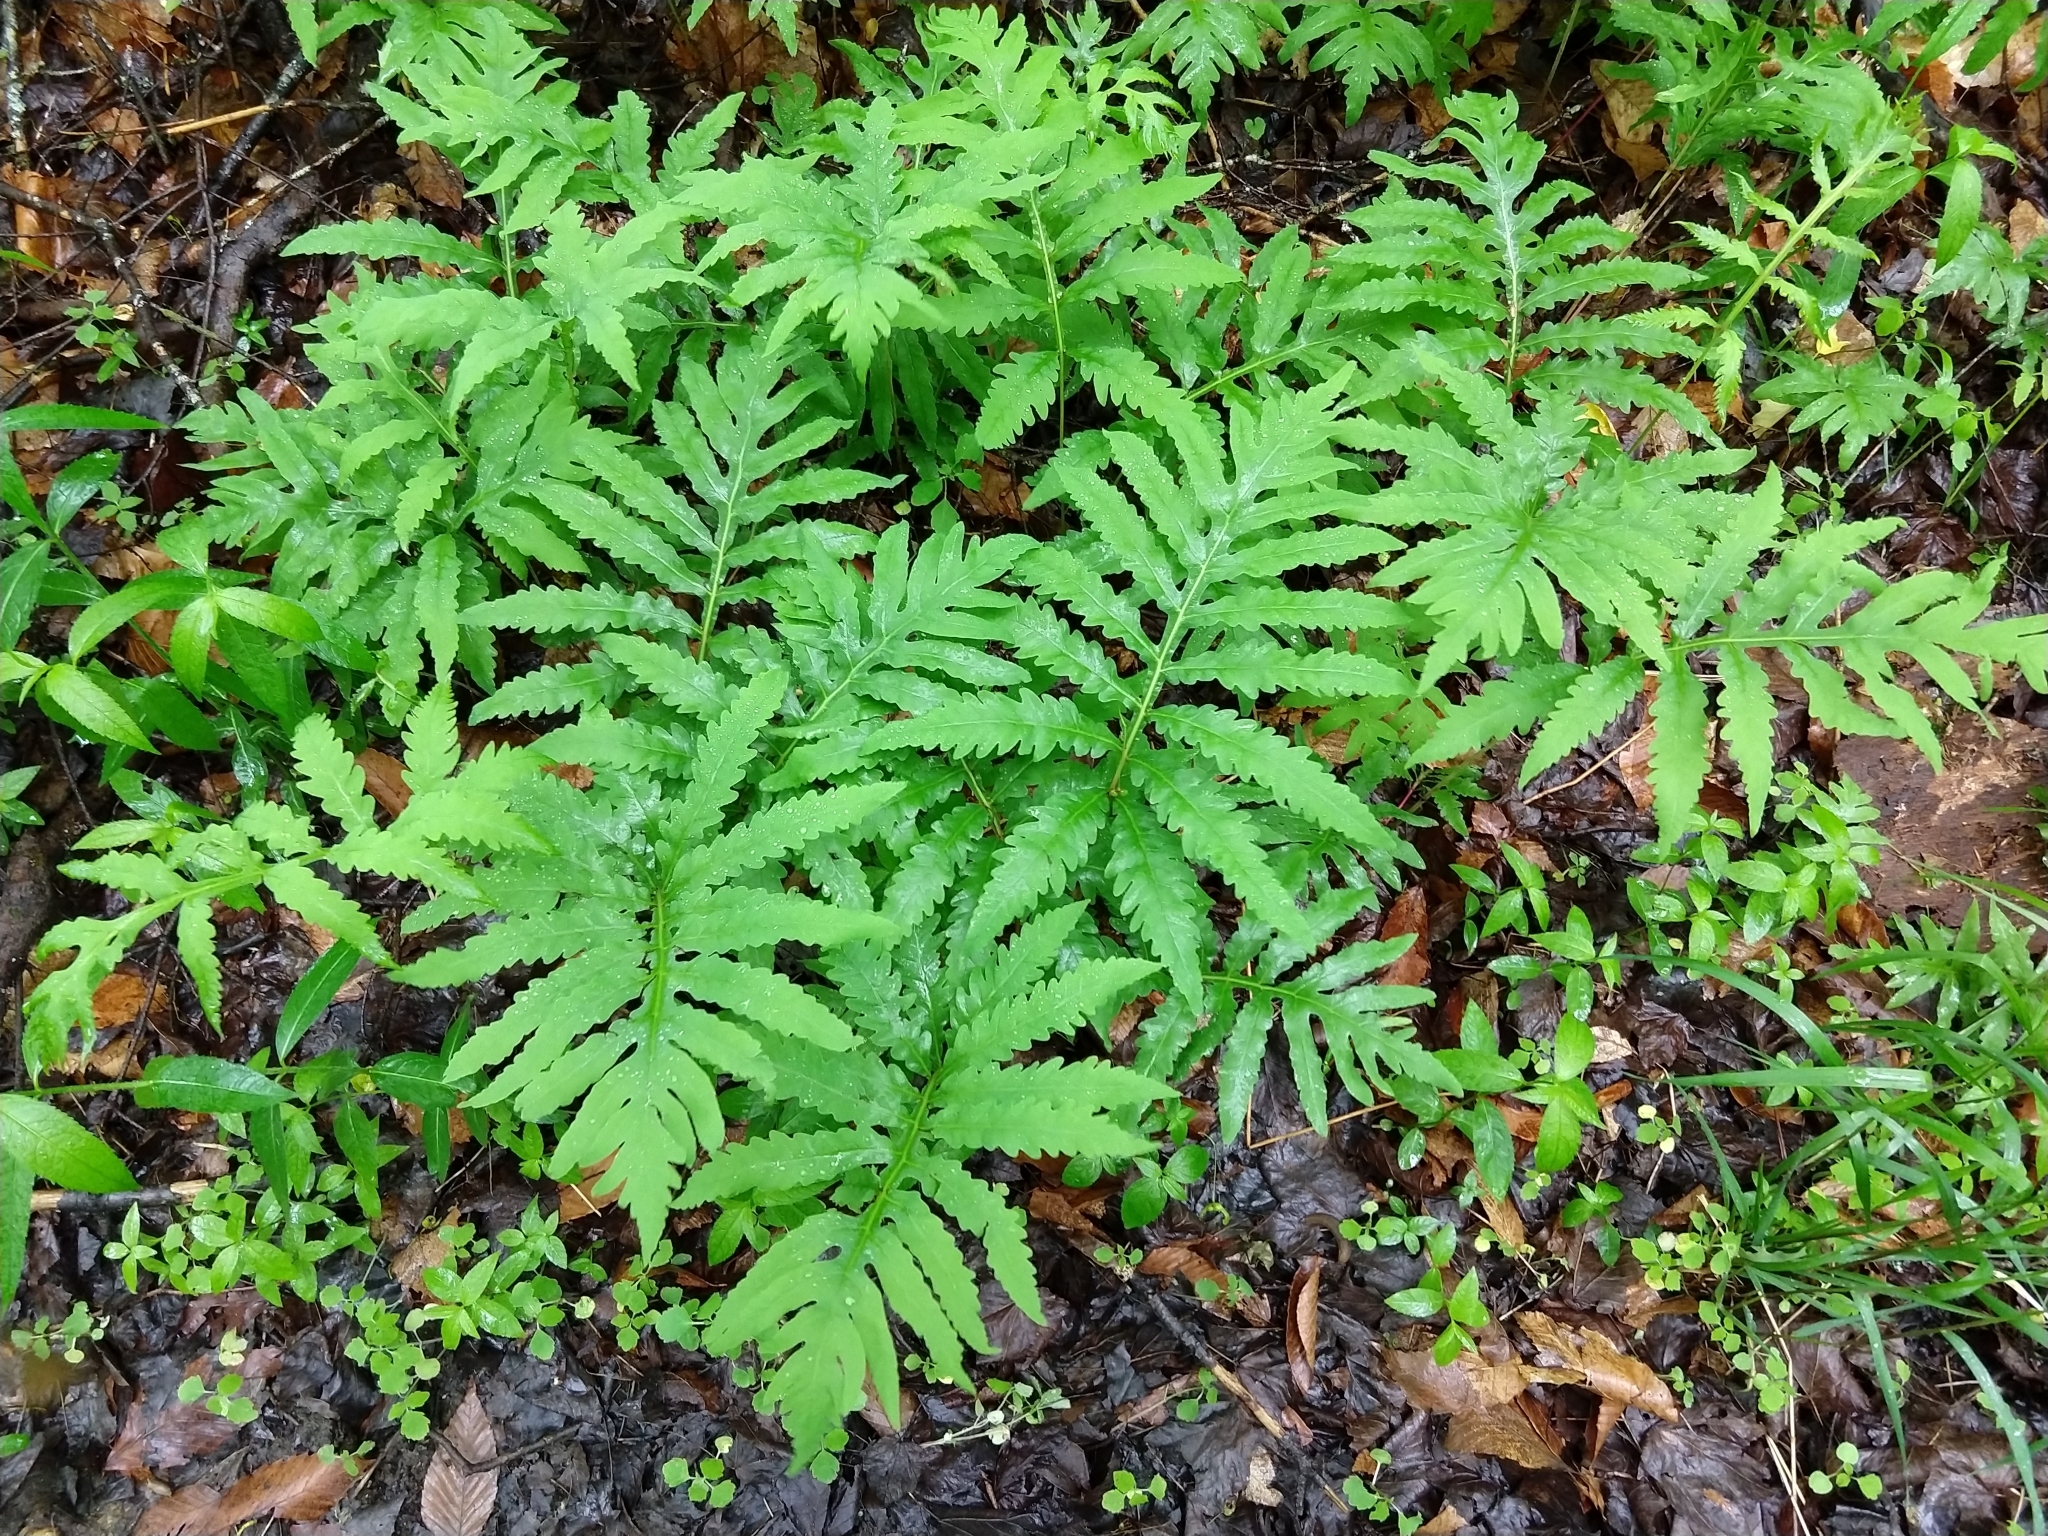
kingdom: Plantae
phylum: Tracheophyta
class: Polypodiopsida
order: Polypodiales
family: Onocleaceae
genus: Onoclea
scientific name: Onoclea sensibilis
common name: Sensitive fern
